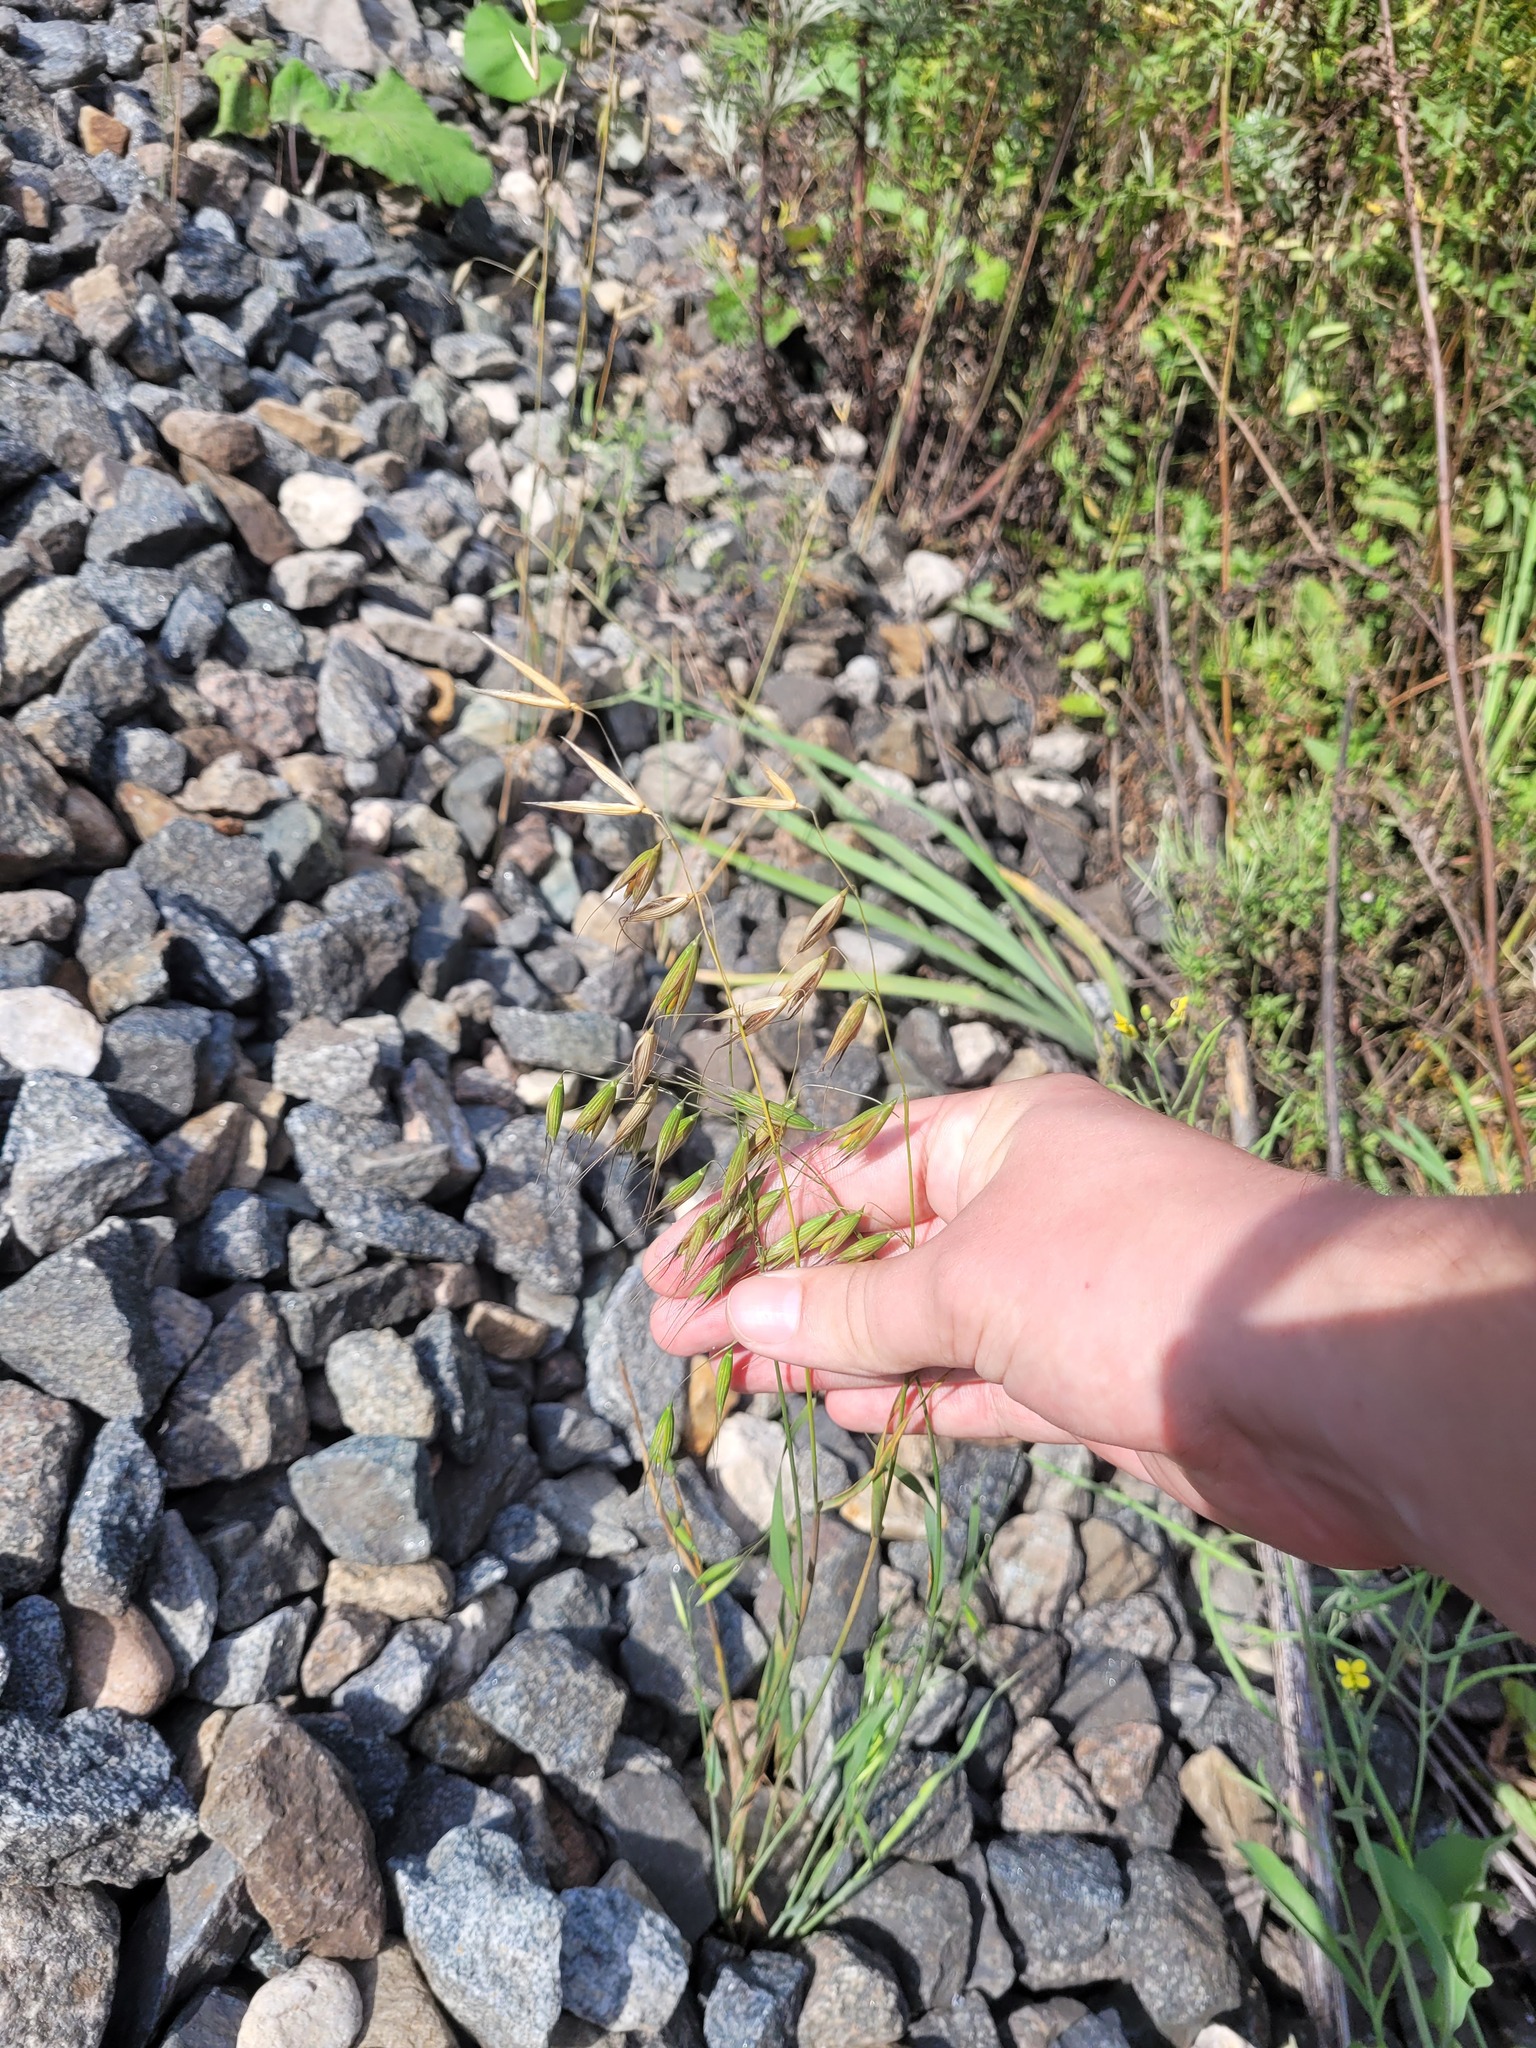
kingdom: Plantae
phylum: Tracheophyta
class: Liliopsida
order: Poales
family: Poaceae
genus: Avena
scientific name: Avena fatua
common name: Wild oat
